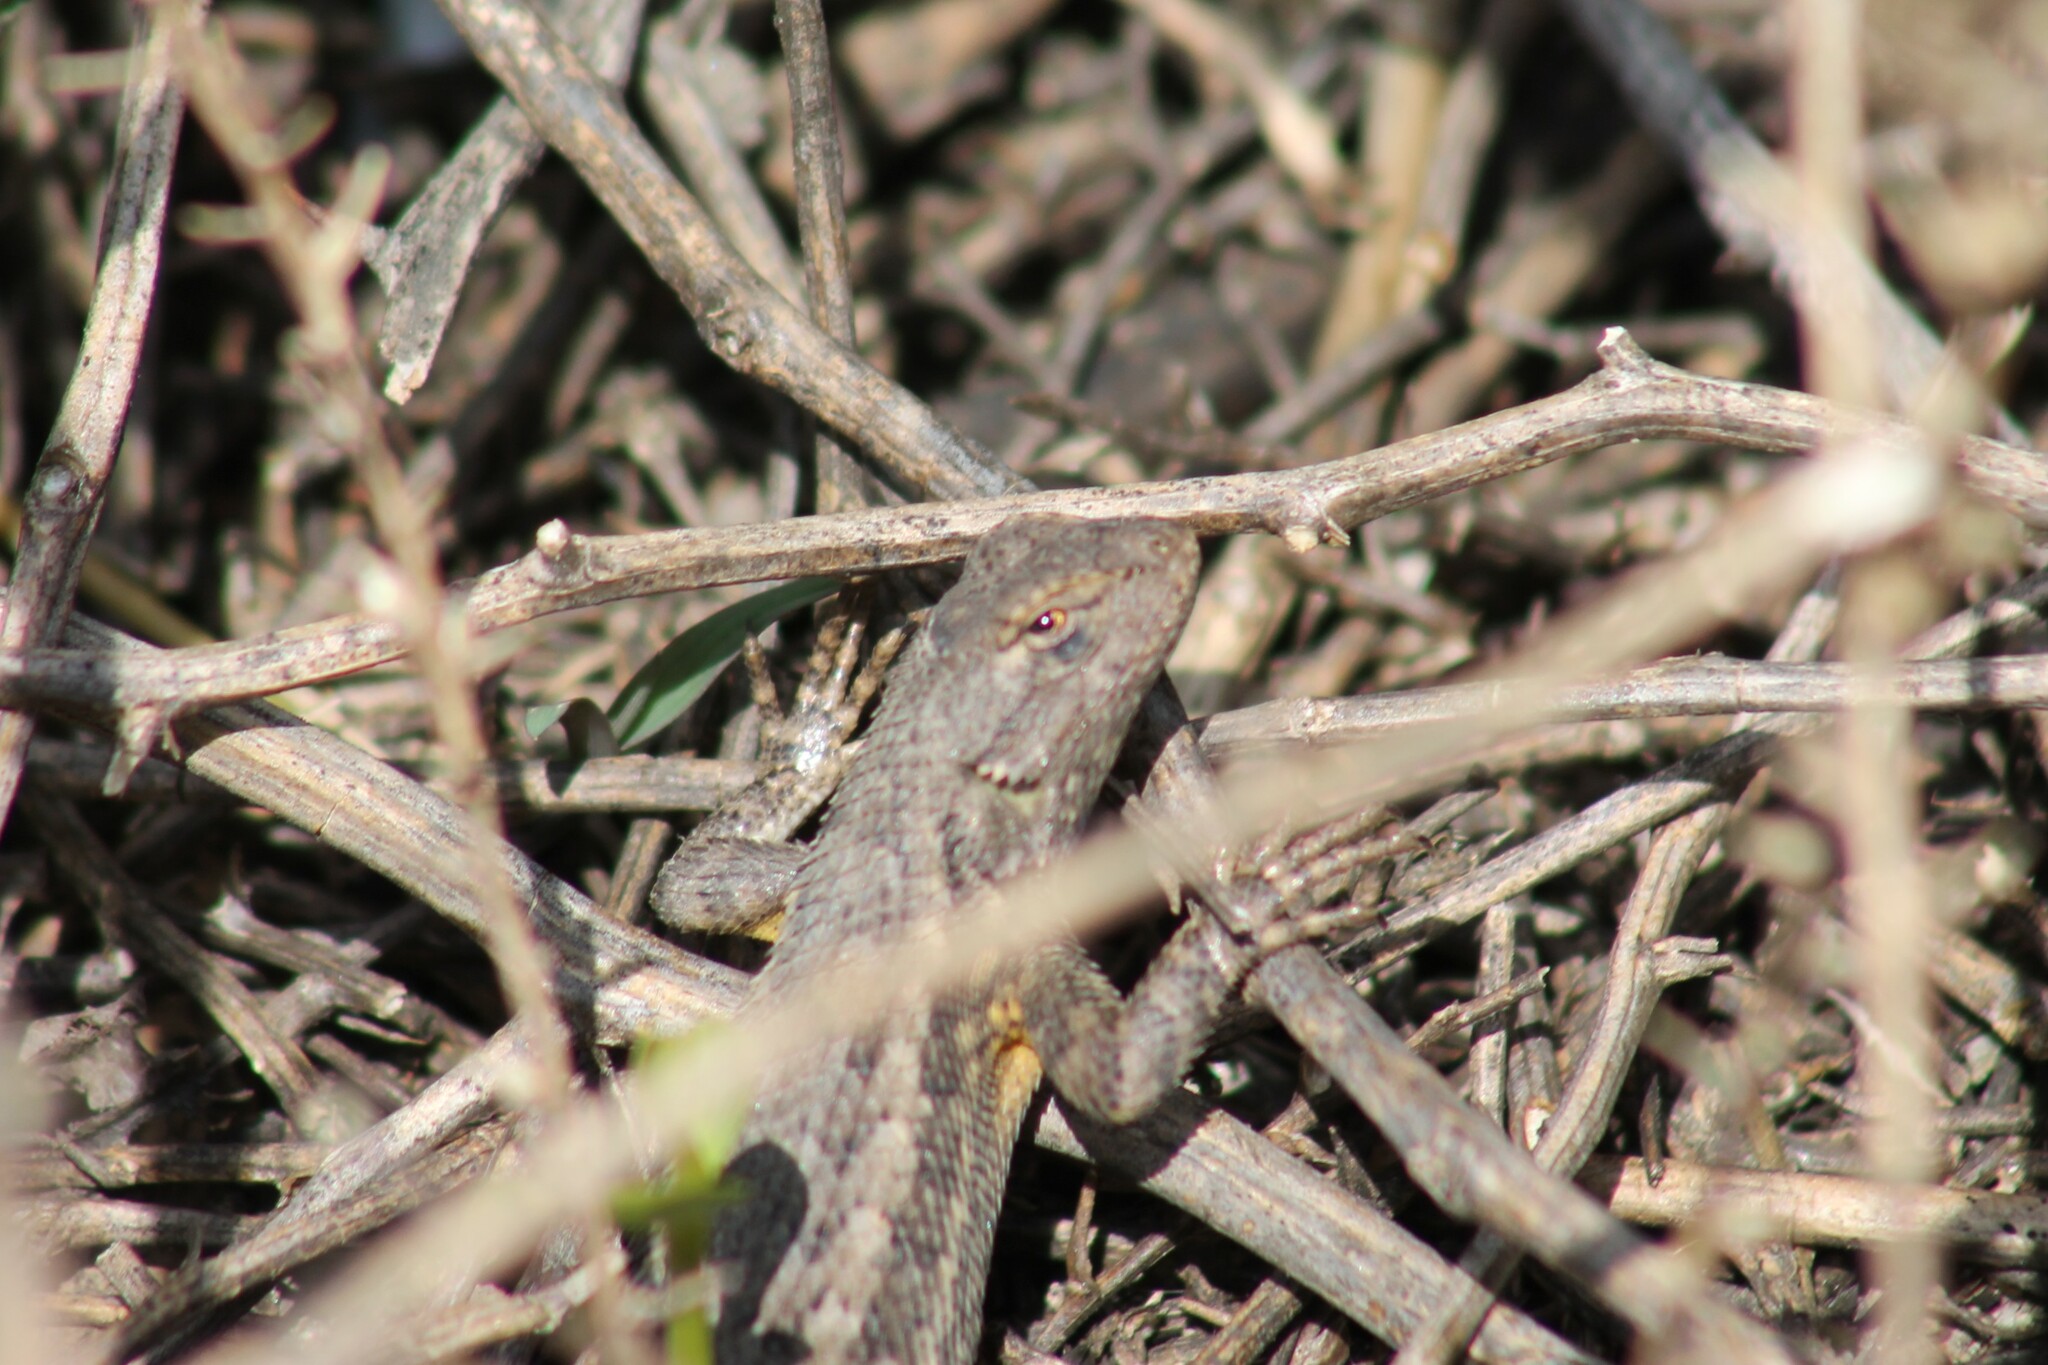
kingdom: Animalia
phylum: Chordata
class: Squamata
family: Phrynosomatidae
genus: Sceloporus
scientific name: Sceloporus occidentalis
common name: Western fence lizard
